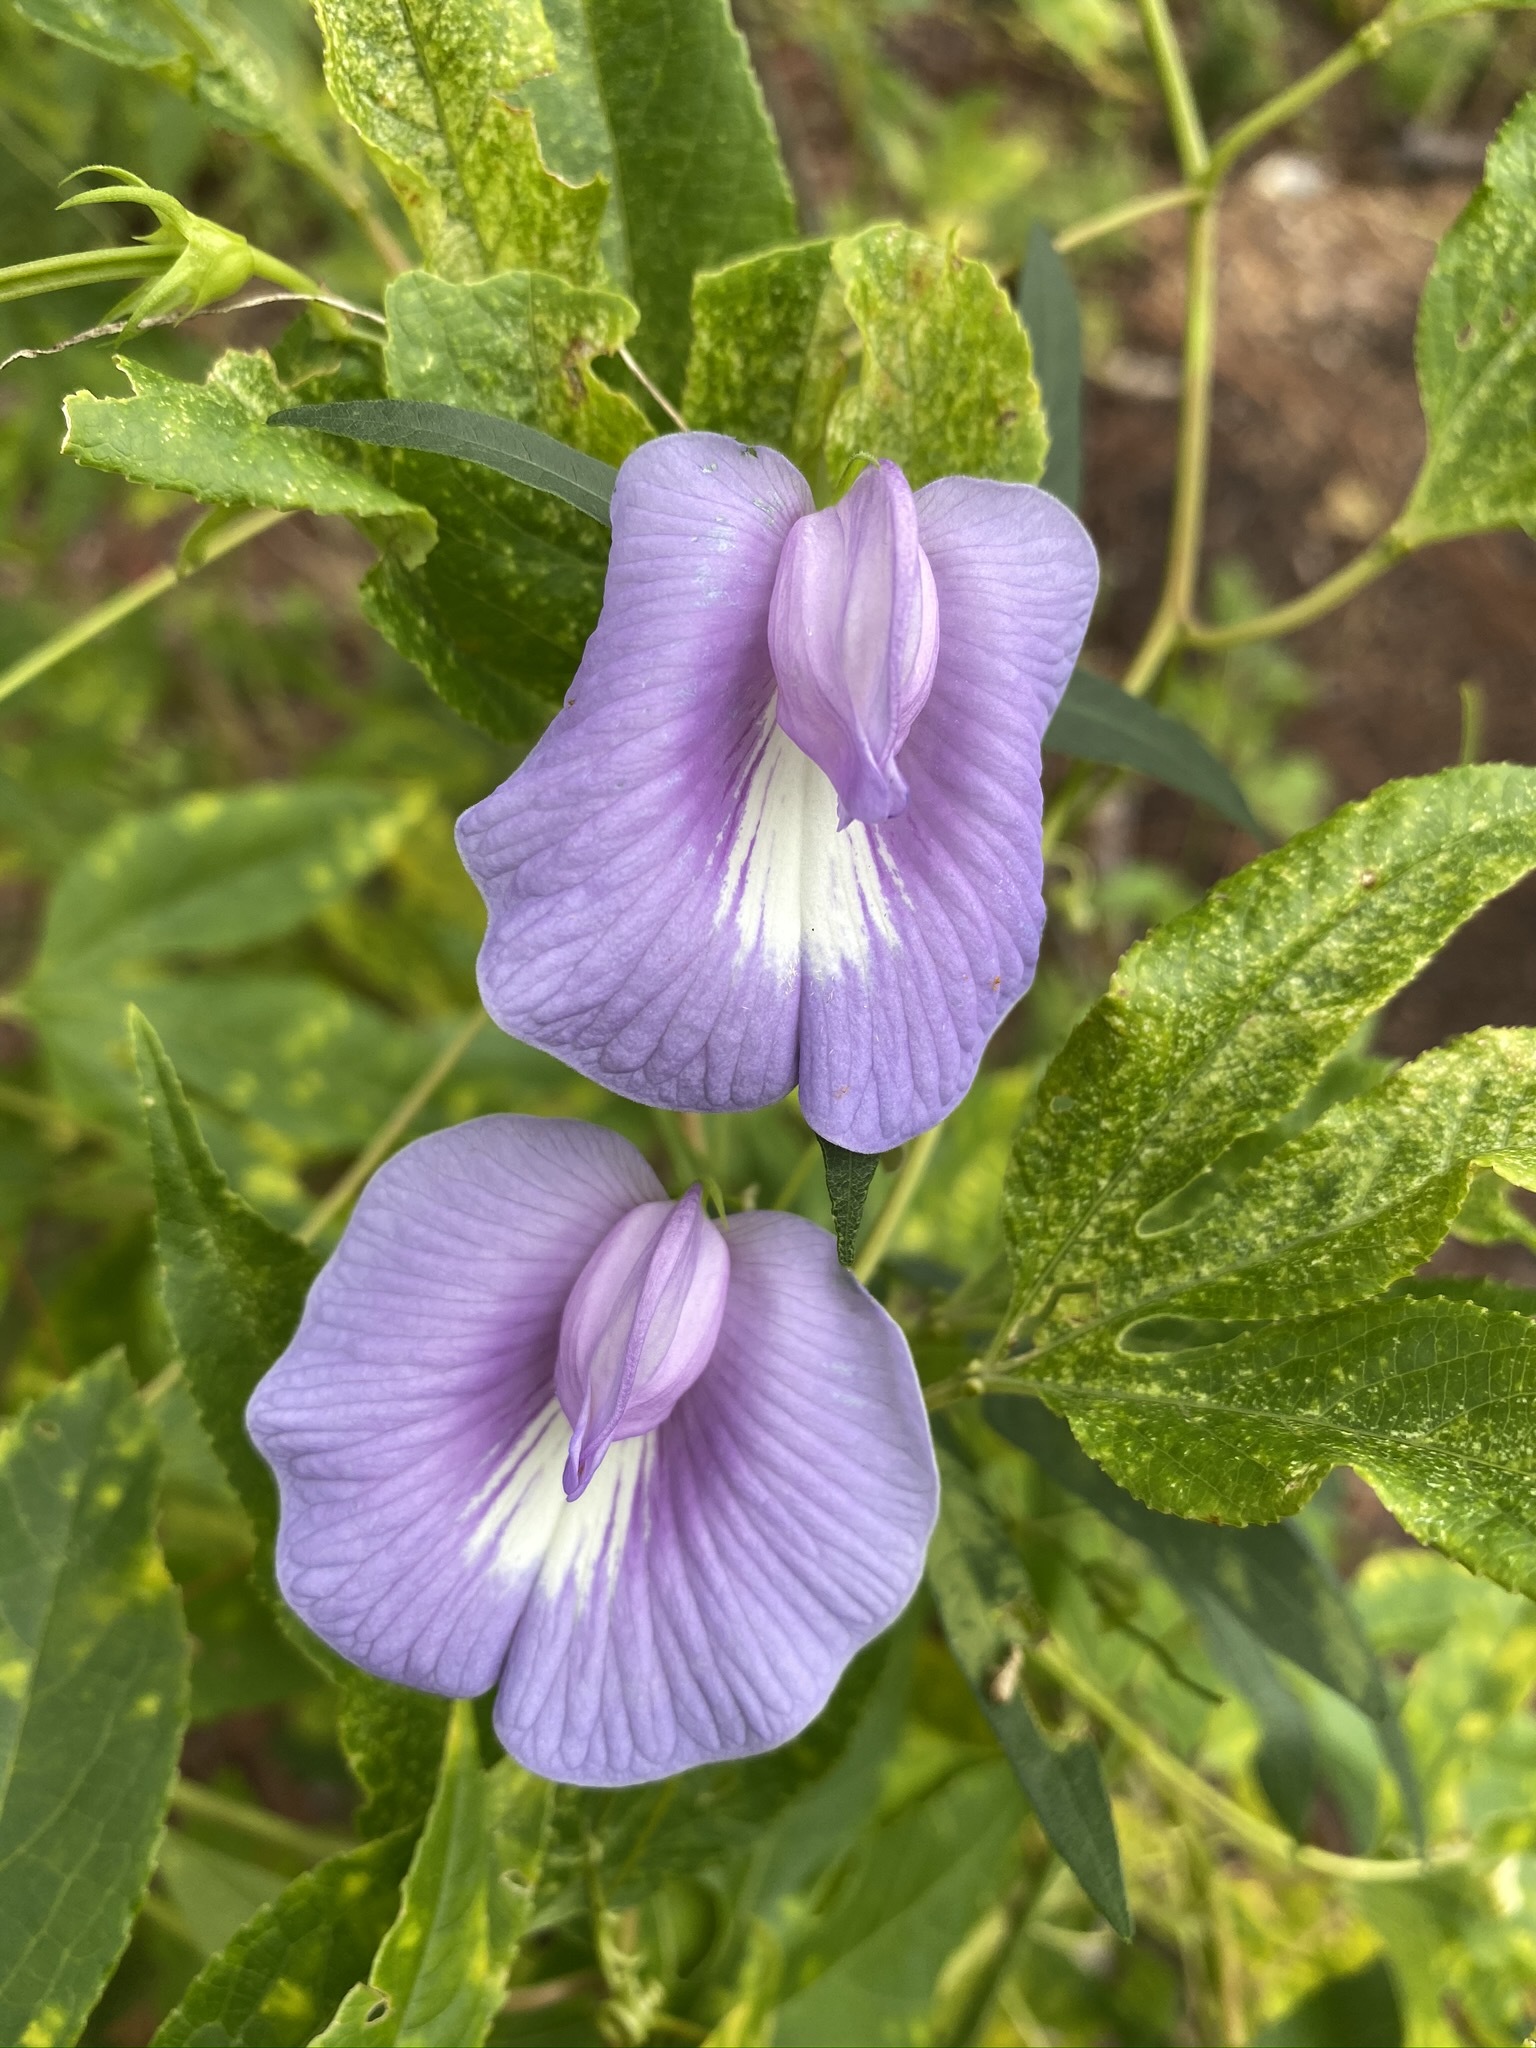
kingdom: Plantae
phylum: Tracheophyta
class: Magnoliopsida
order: Fabales
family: Fabaceae
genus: Centrosema
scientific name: Centrosema virginianum
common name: Butterfly-pea
